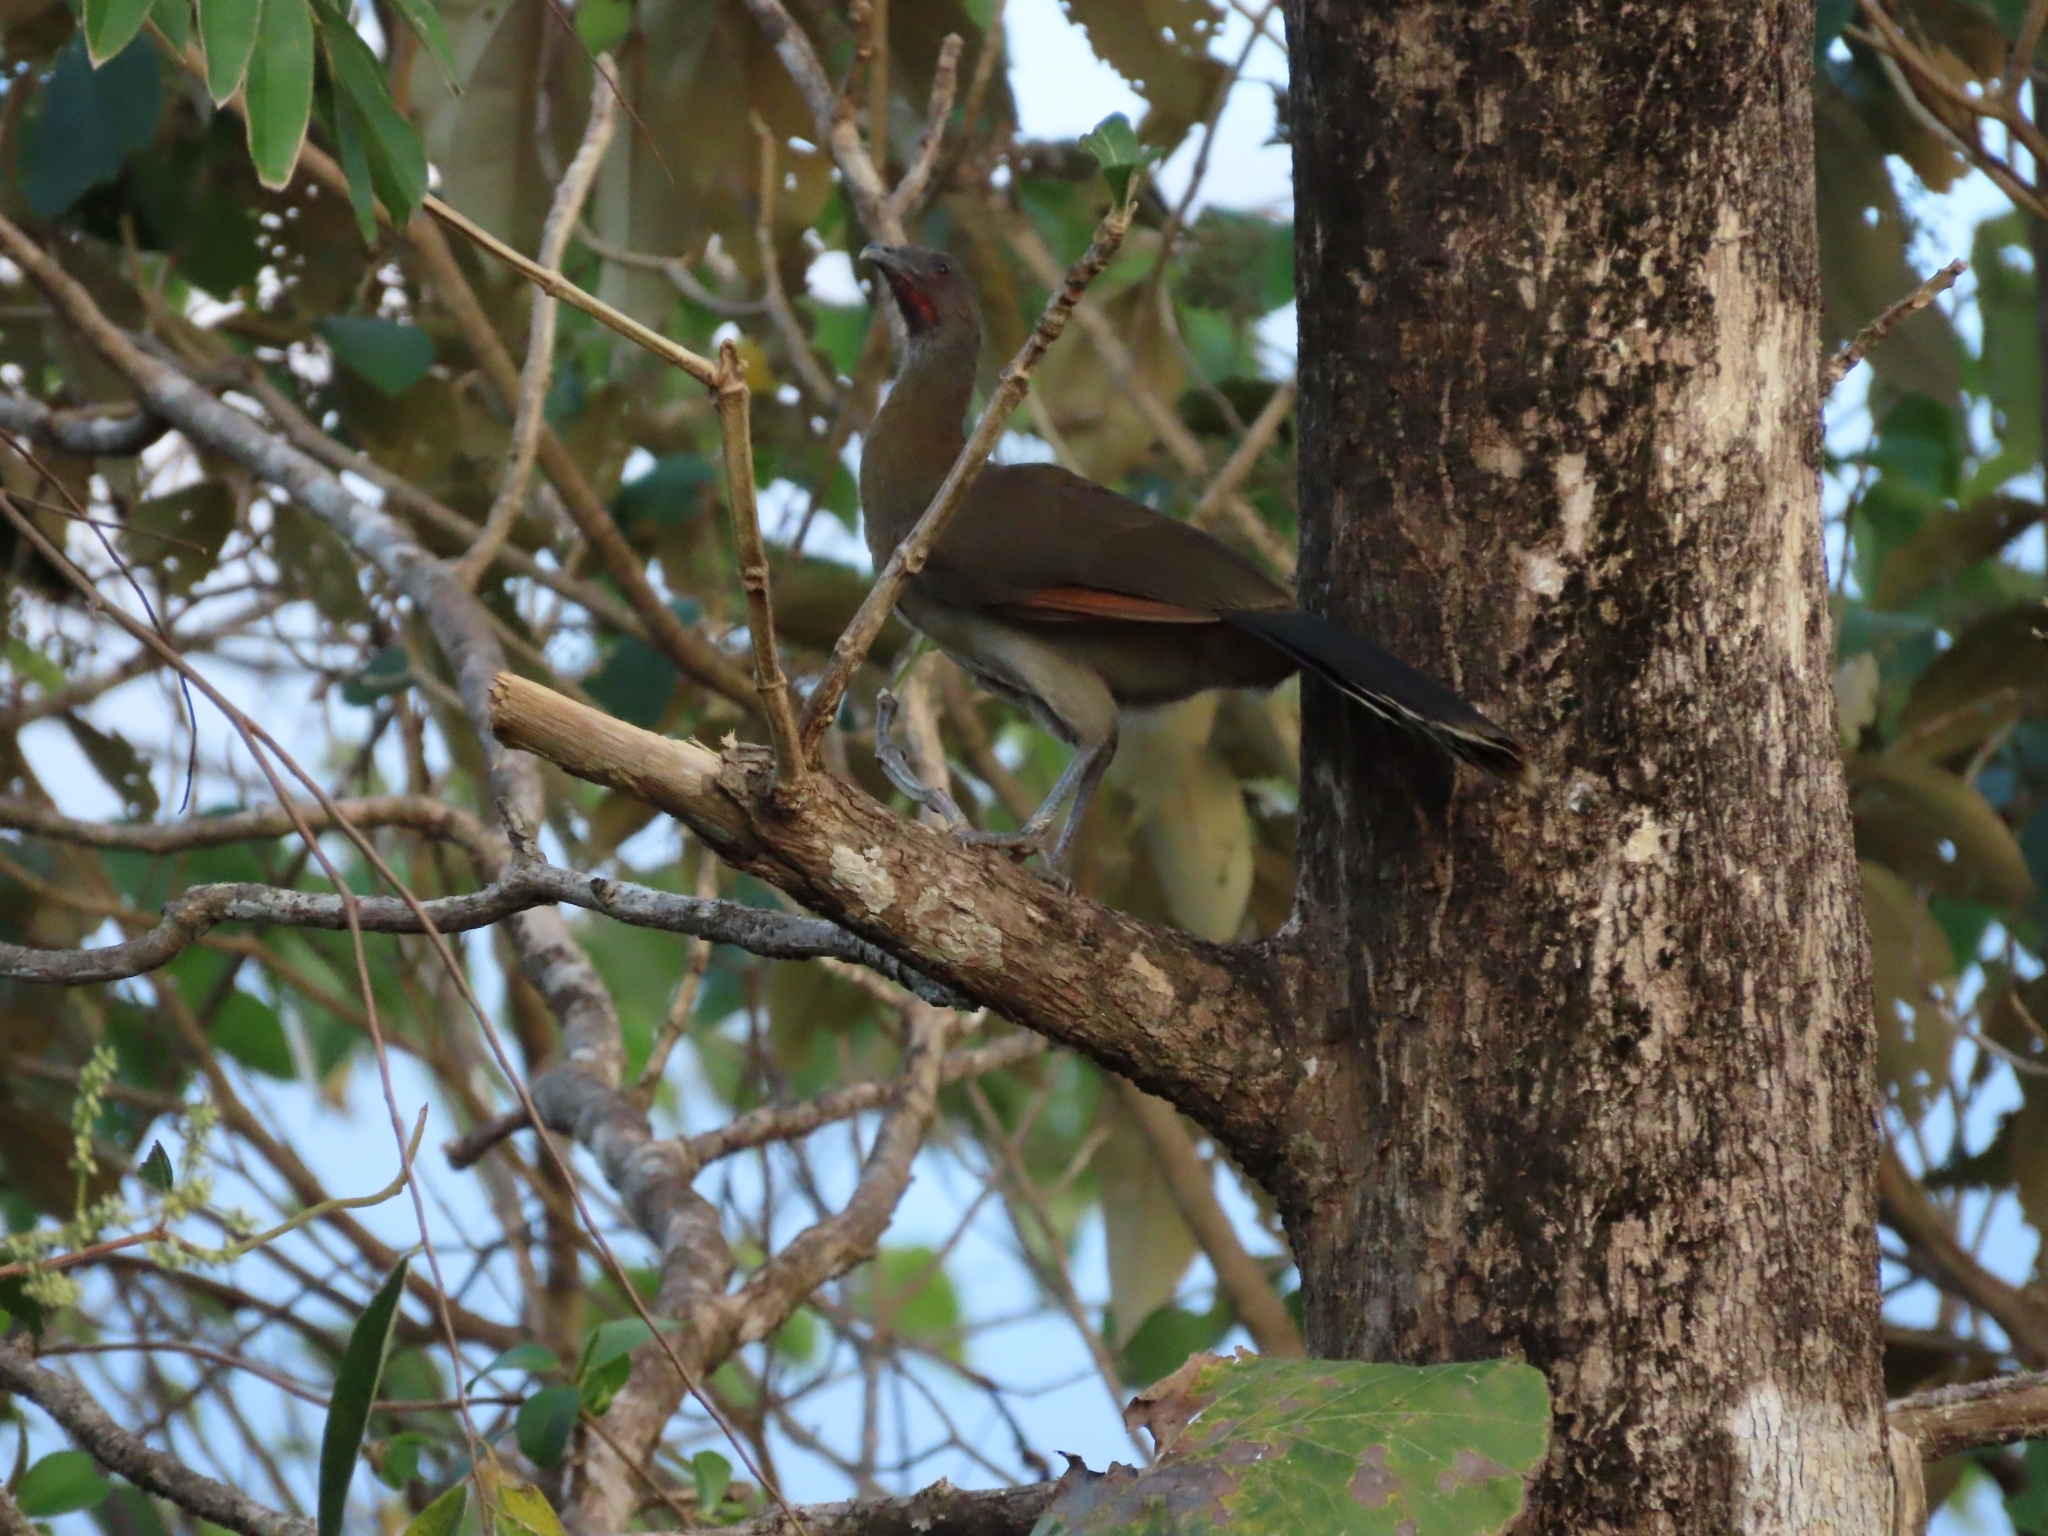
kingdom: Animalia
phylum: Chordata
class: Aves
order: Galliformes
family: Cracidae
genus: Ortalis
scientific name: Ortalis cinereiceps
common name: Grey-headed chachalaca
